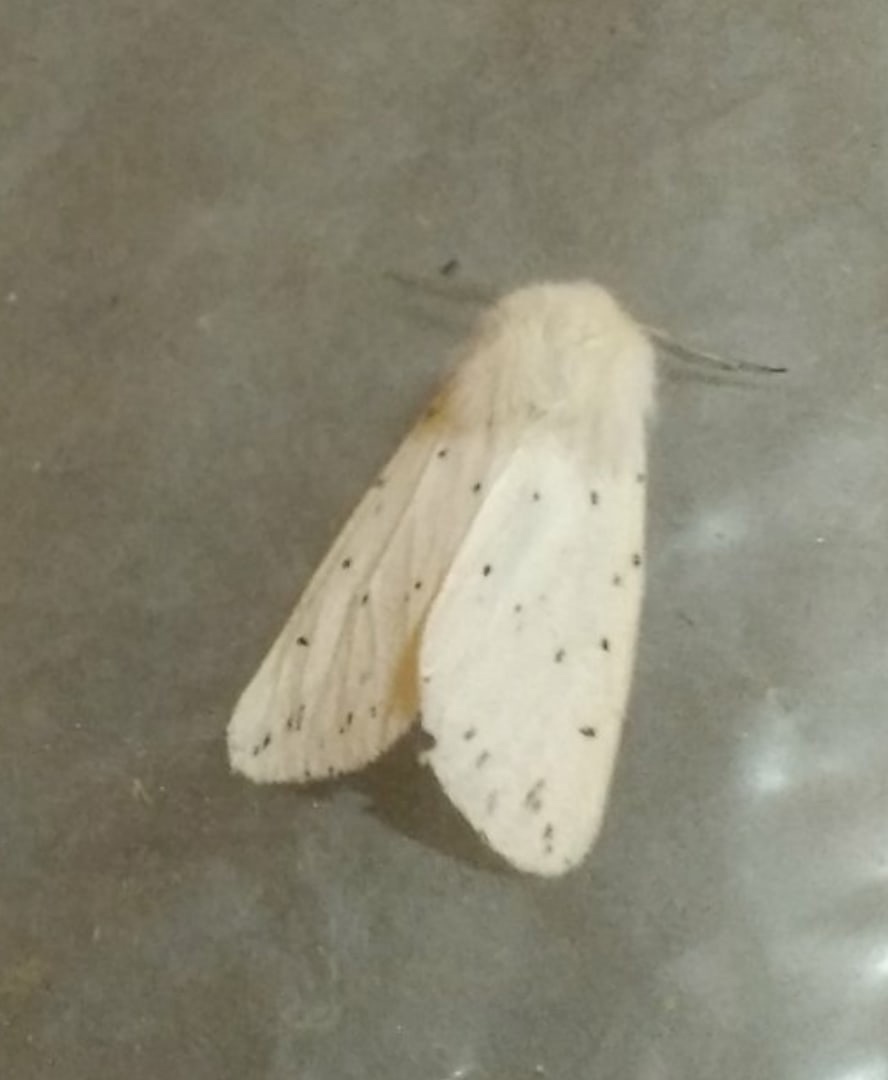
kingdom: Animalia
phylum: Arthropoda
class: Insecta
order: Lepidoptera
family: Erebidae
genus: Spilosoma
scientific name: Spilosoma lubricipeda
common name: White ermine
